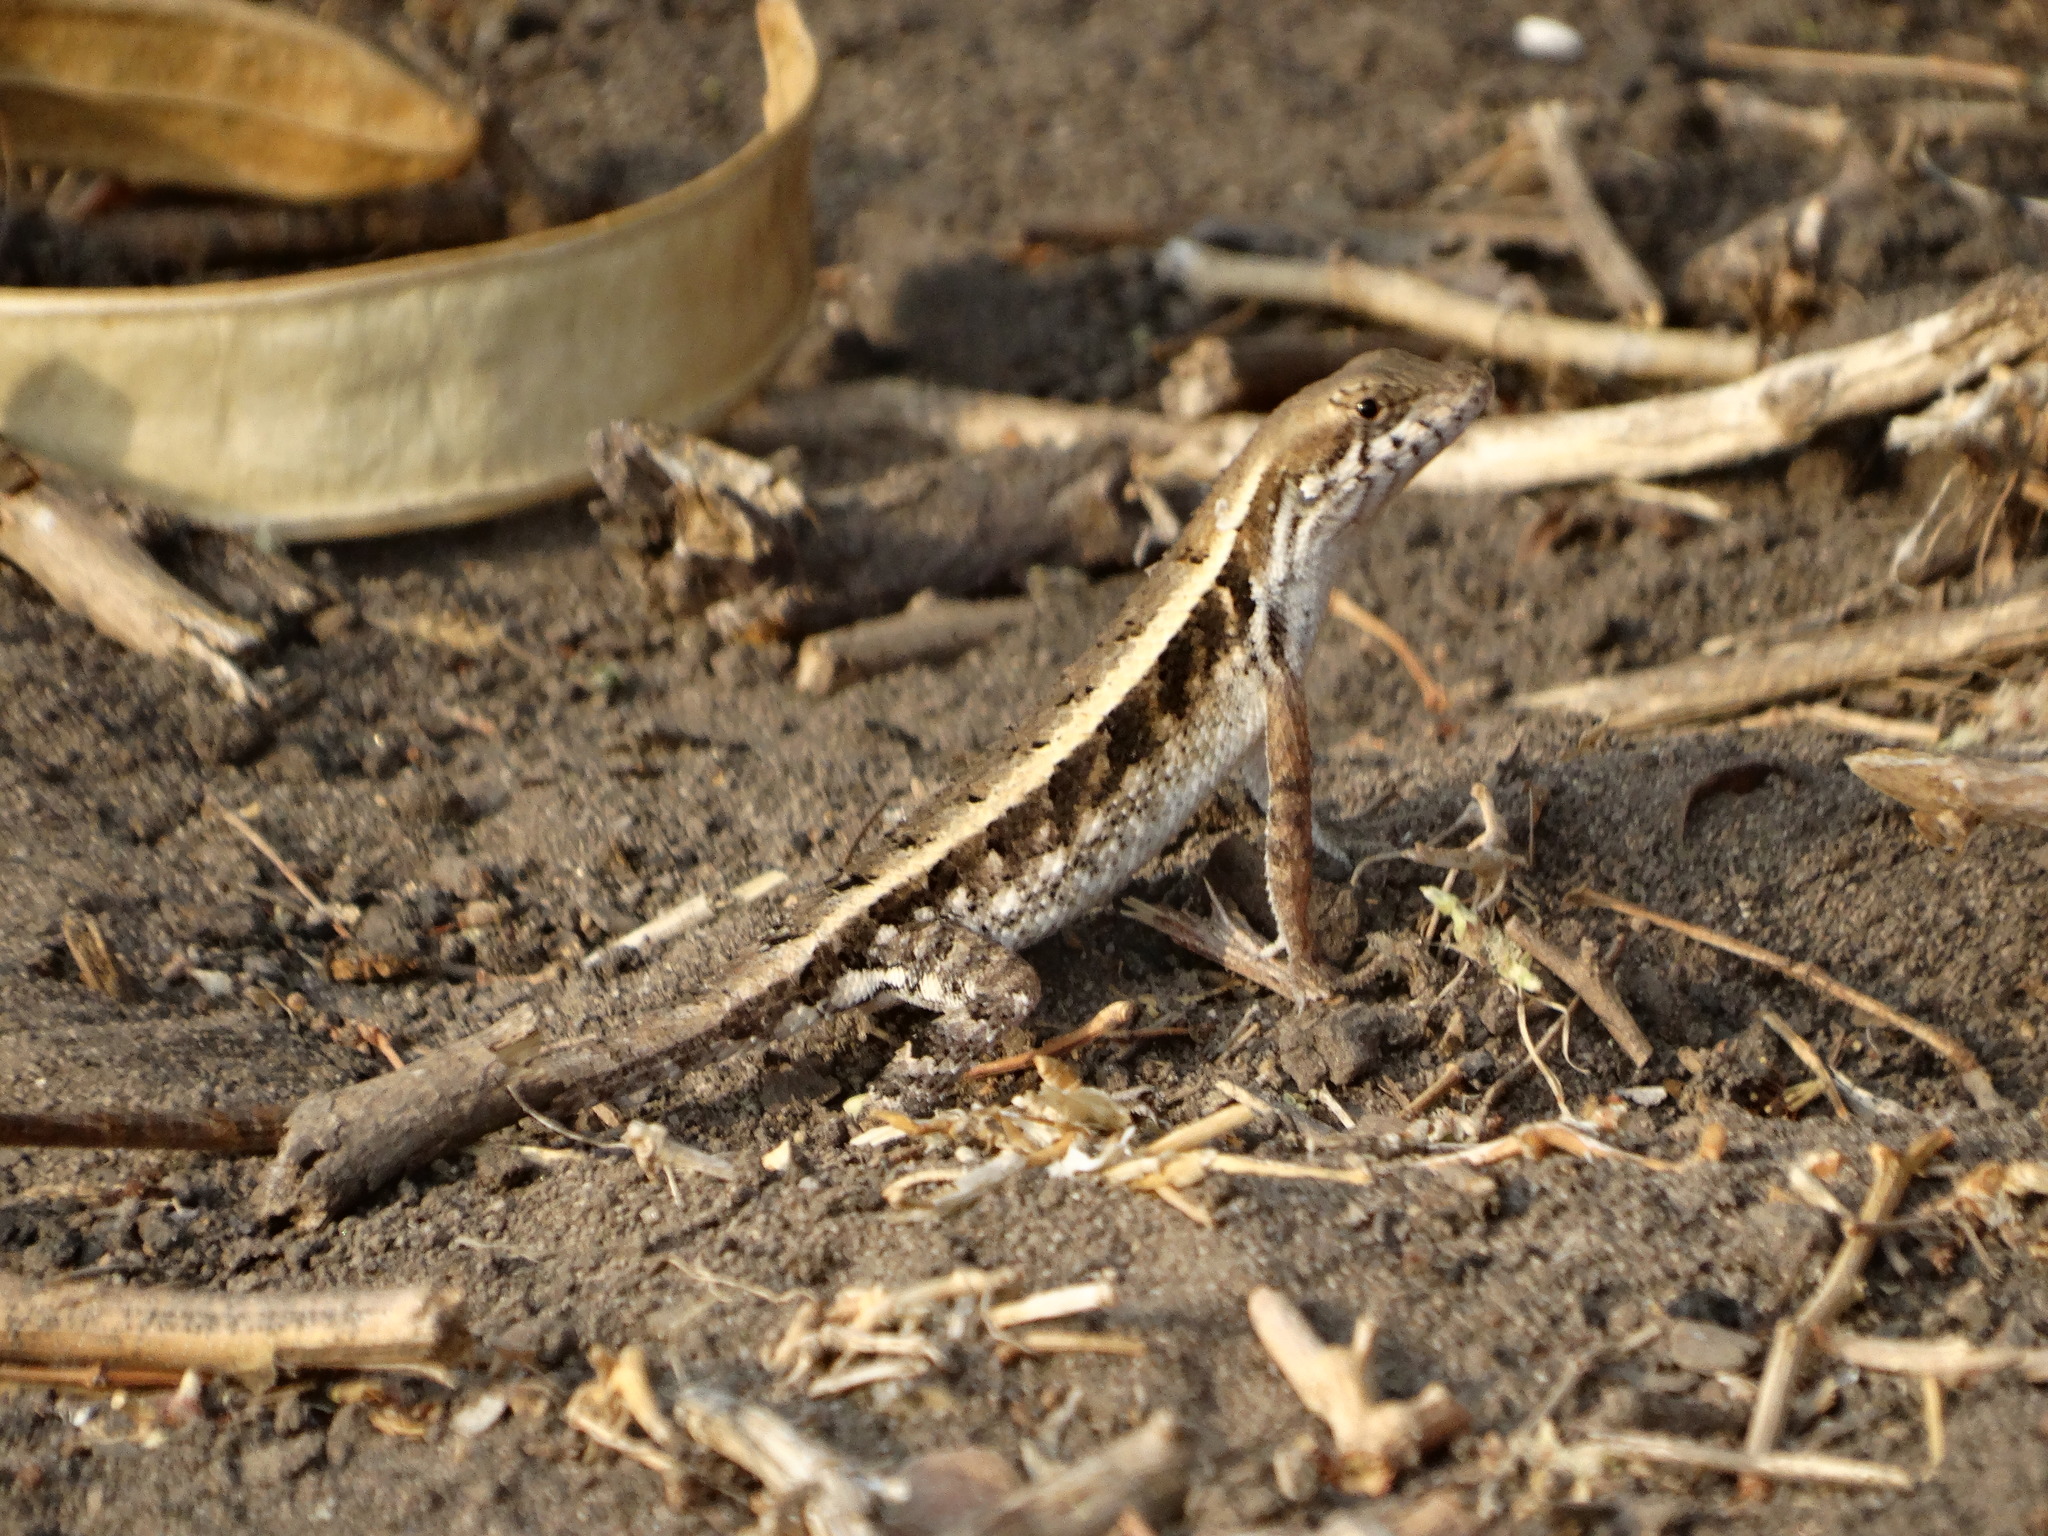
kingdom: Animalia
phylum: Chordata
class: Squamata
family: Phrynosomatidae
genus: Sceloporus
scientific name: Sceloporus siniferus
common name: Longtail spiny lizard
